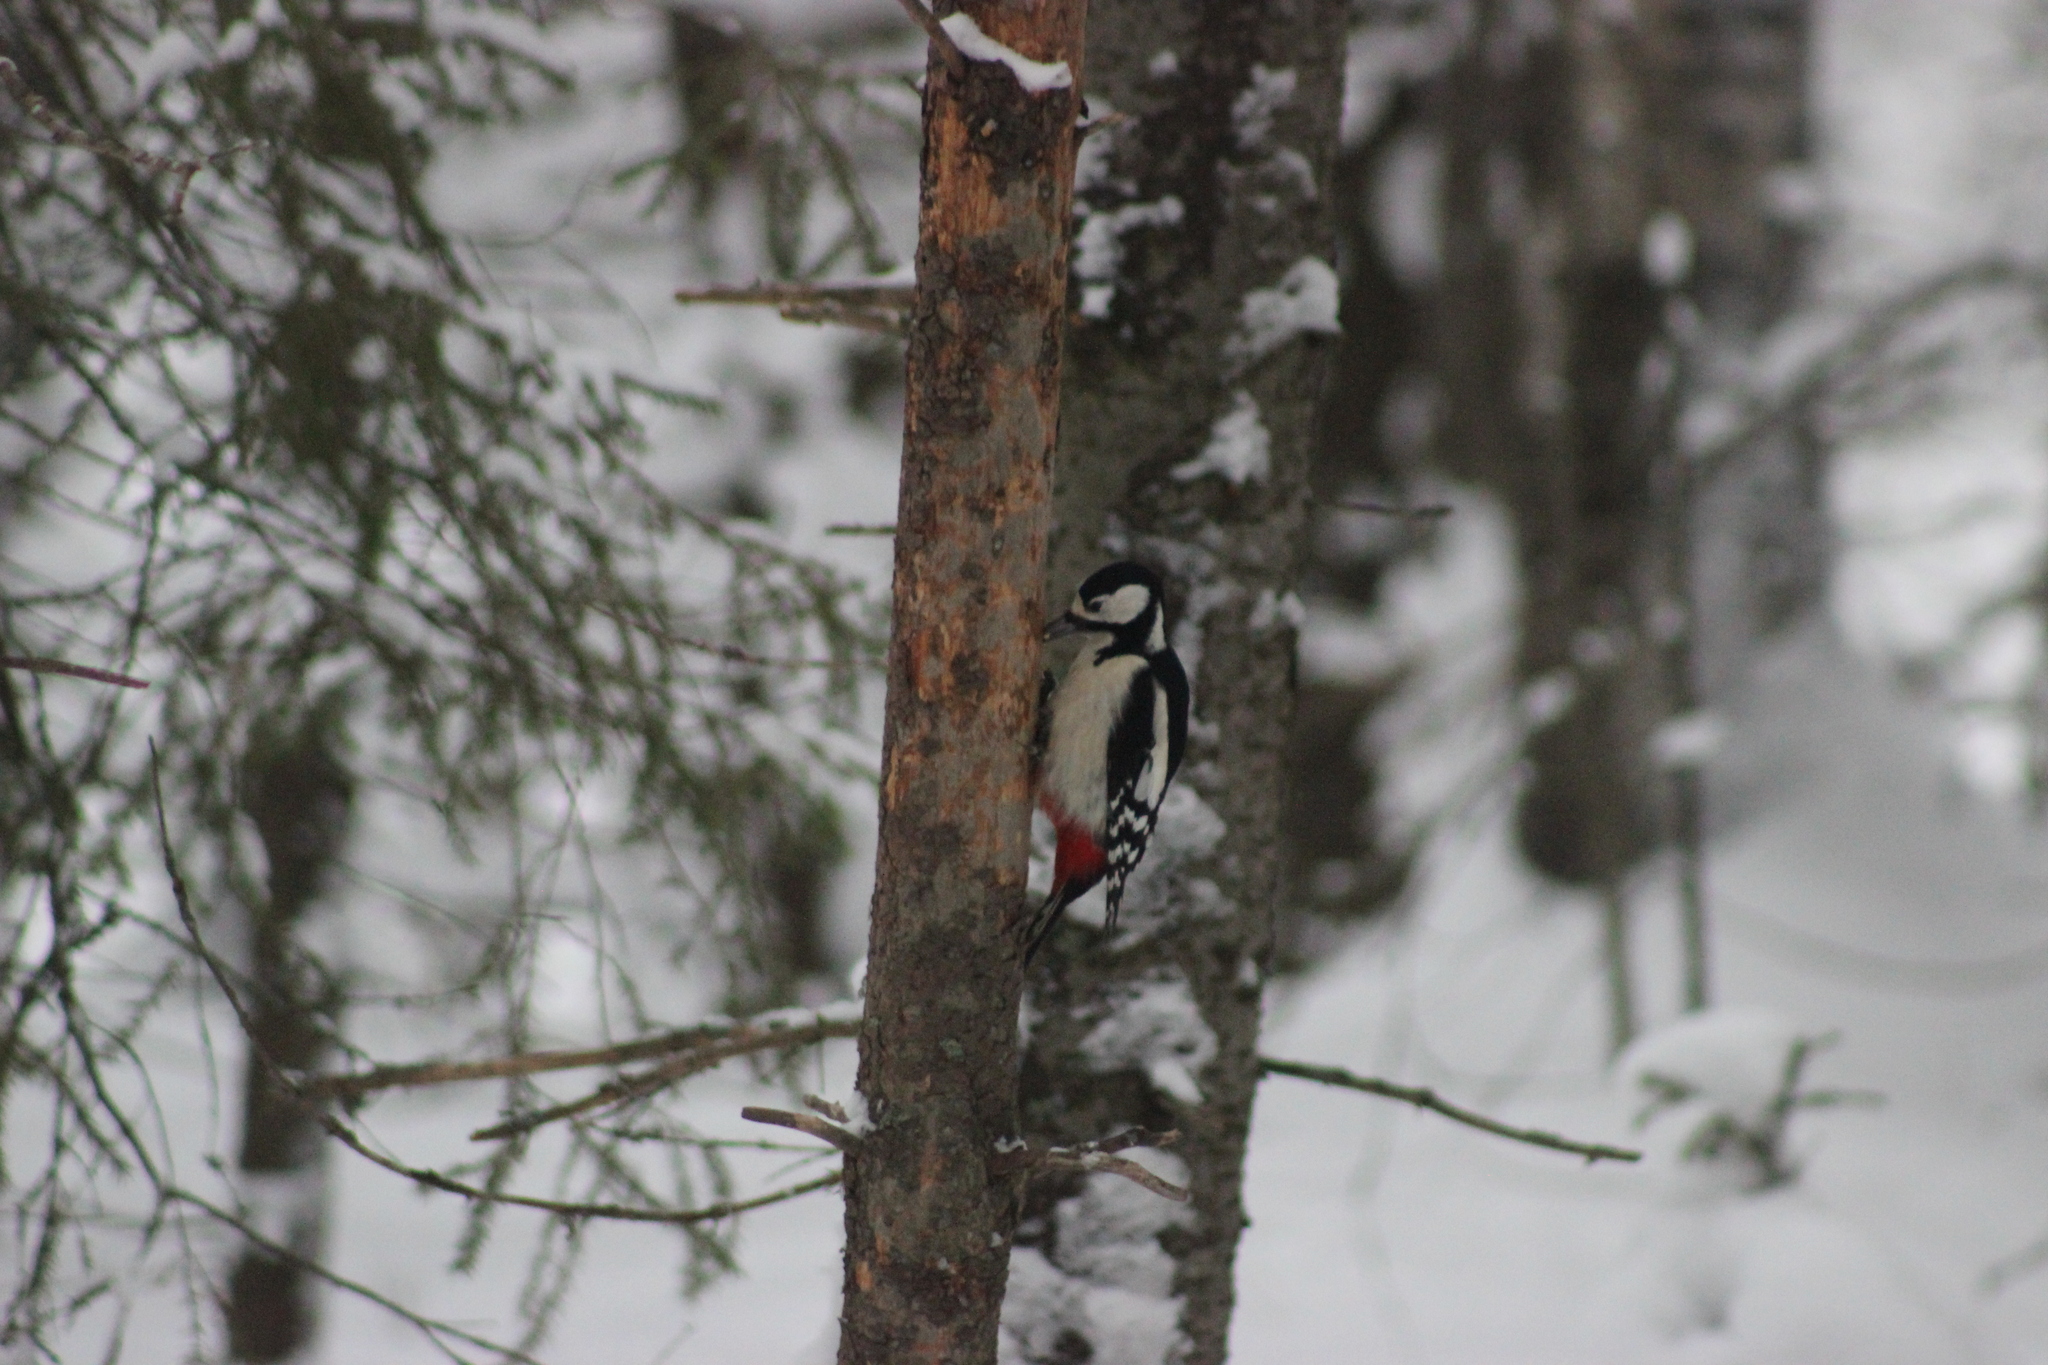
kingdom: Animalia
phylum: Chordata
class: Aves
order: Piciformes
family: Picidae
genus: Dendrocopos
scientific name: Dendrocopos major
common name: Great spotted woodpecker
